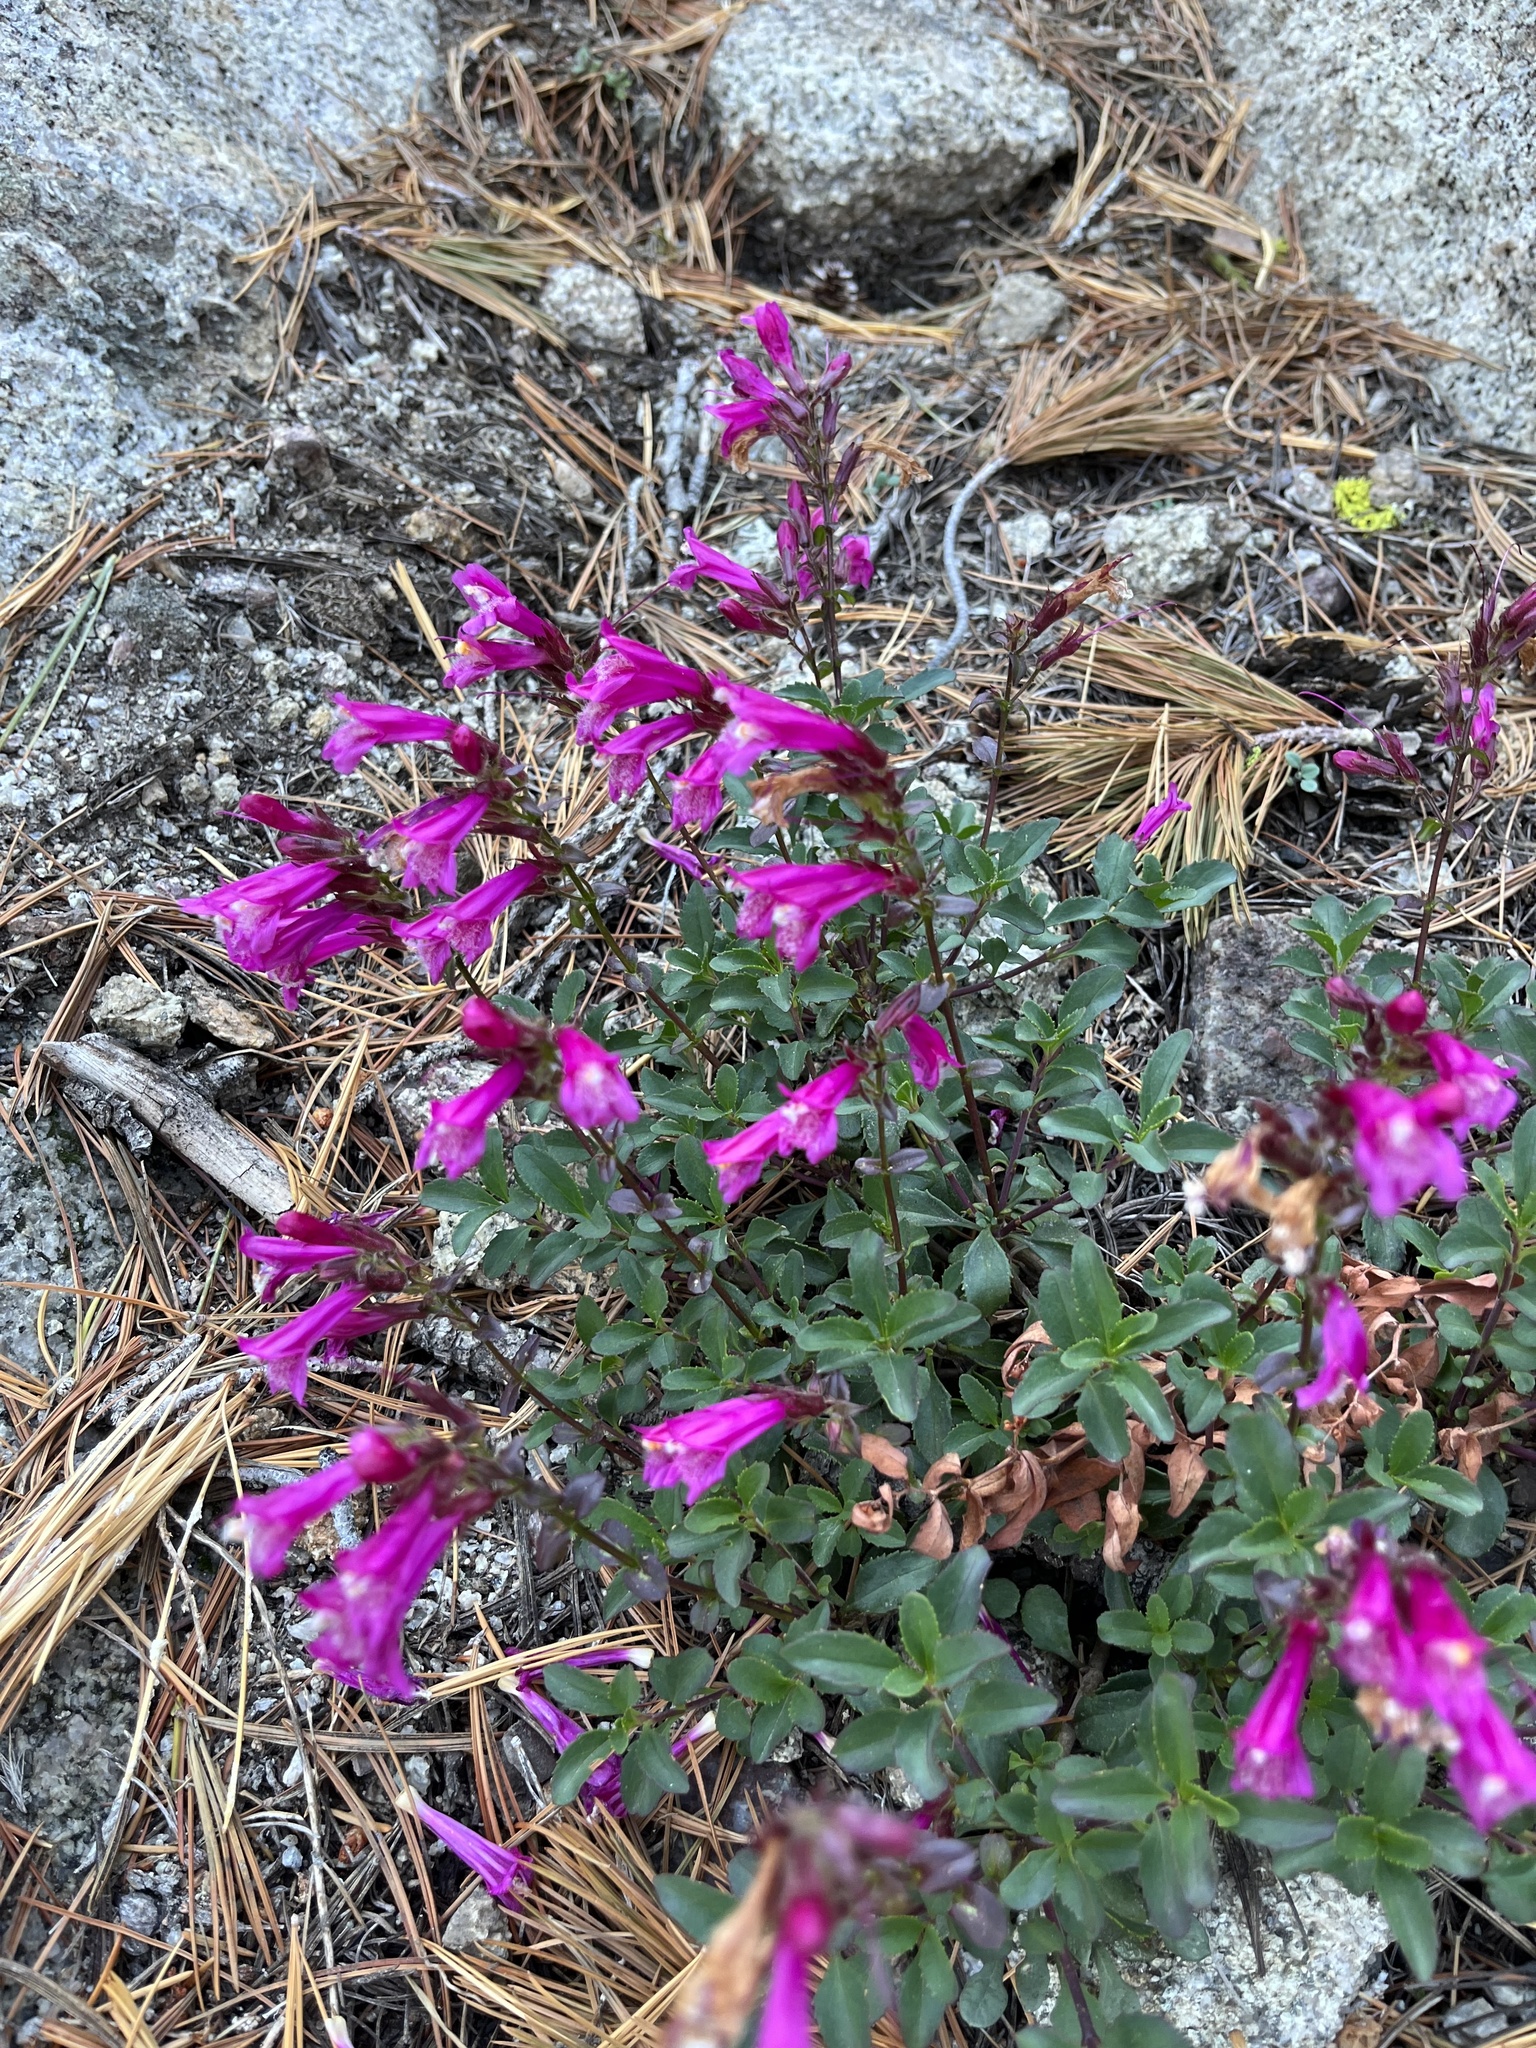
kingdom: Plantae
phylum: Tracheophyta
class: Magnoliopsida
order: Lamiales
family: Plantaginaceae
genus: Penstemon
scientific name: Penstemon newberryi
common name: Mountain-pride
